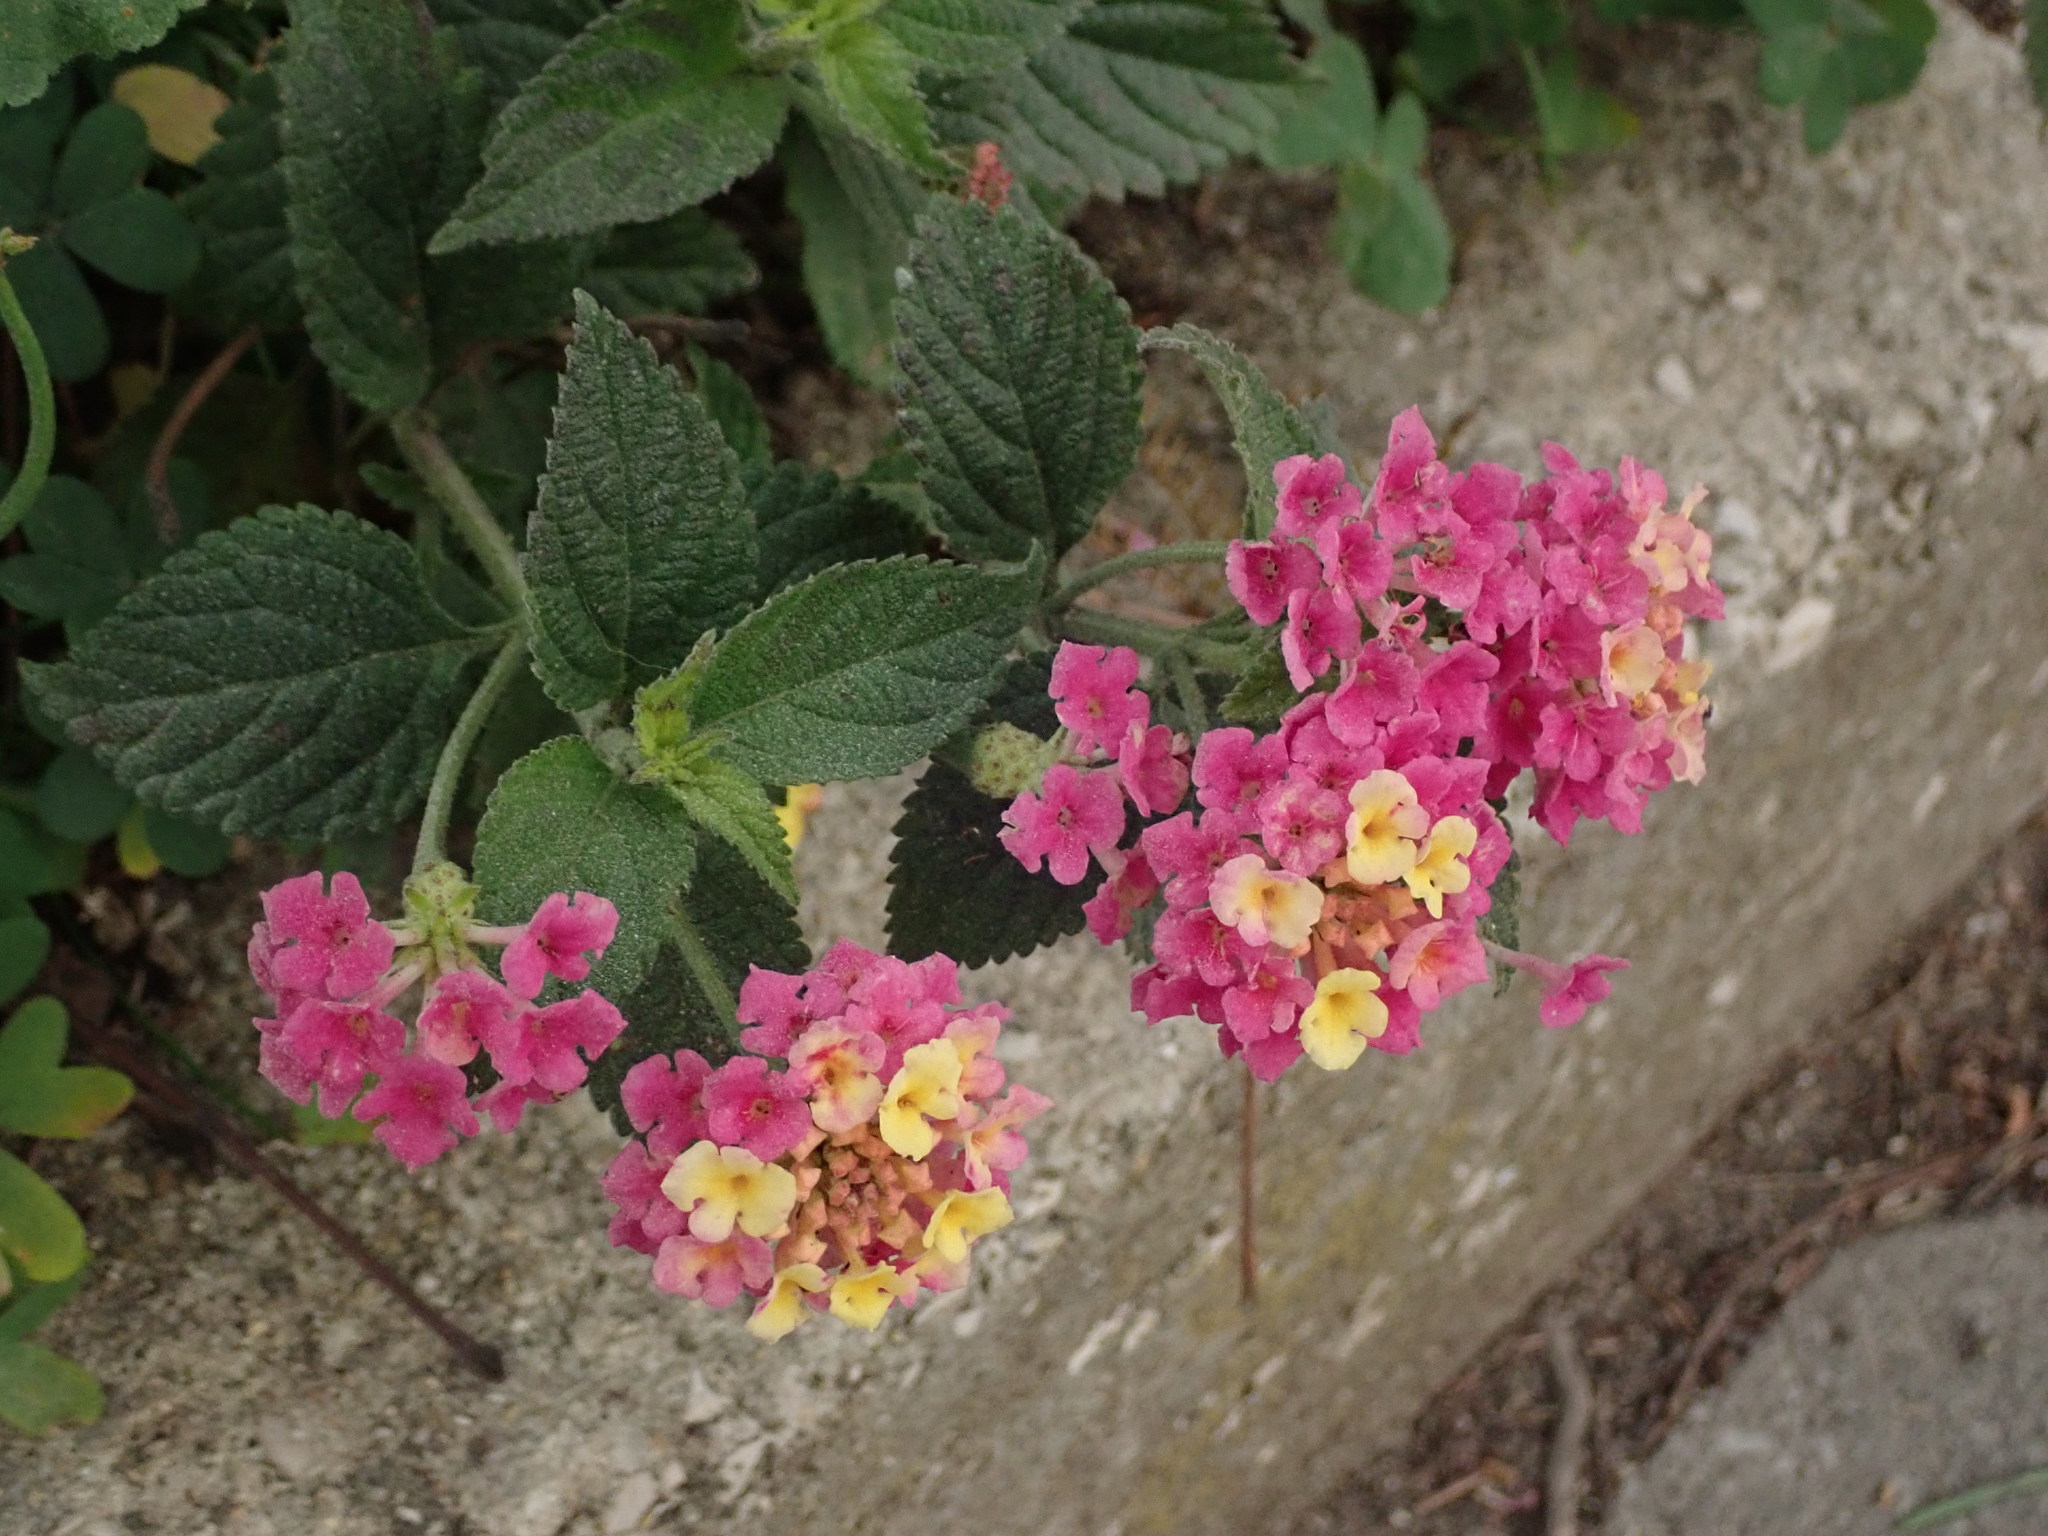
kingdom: Plantae
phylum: Tracheophyta
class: Magnoliopsida
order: Lamiales
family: Verbenaceae
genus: Lantana
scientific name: Lantana camara
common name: Lantana
